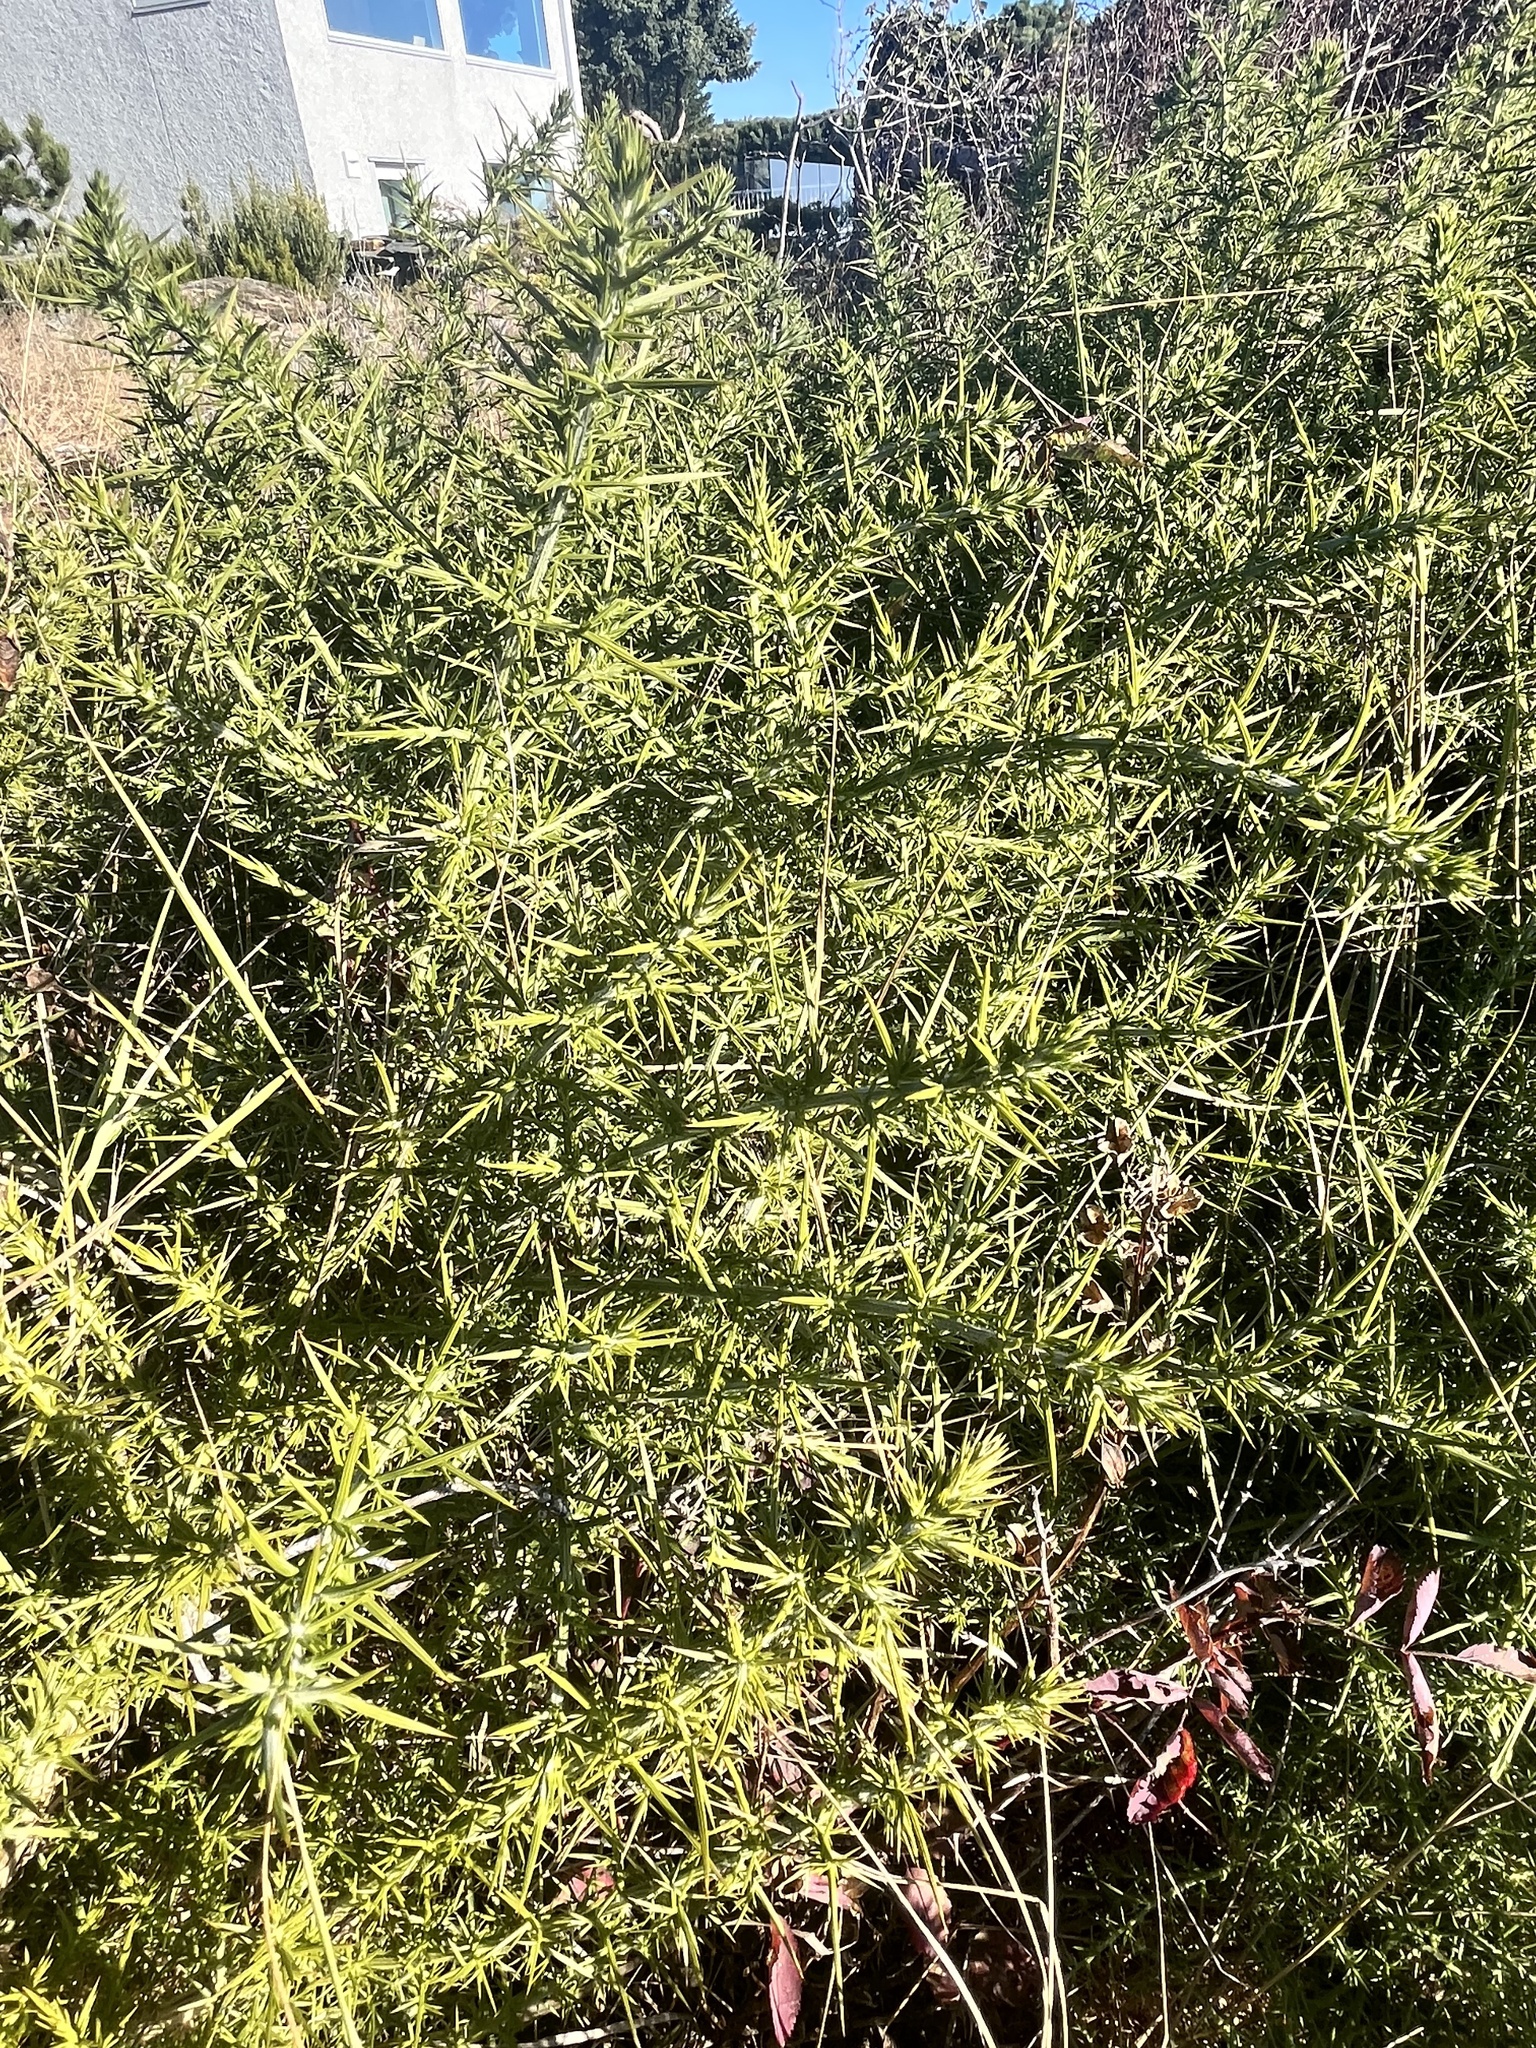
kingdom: Plantae
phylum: Tracheophyta
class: Magnoliopsida
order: Fabales
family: Fabaceae
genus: Ulex
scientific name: Ulex europaeus
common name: Common gorse
